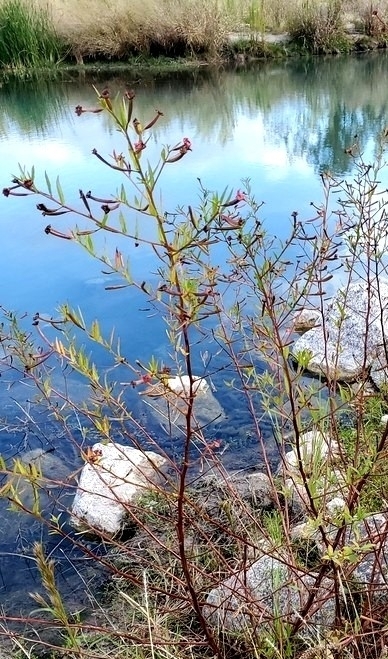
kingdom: Plantae
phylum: Tracheophyta
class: Magnoliopsida
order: Myrtales
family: Onagraceae
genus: Ludwigia
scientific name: Ludwigia octovalvis
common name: Water-primrose
